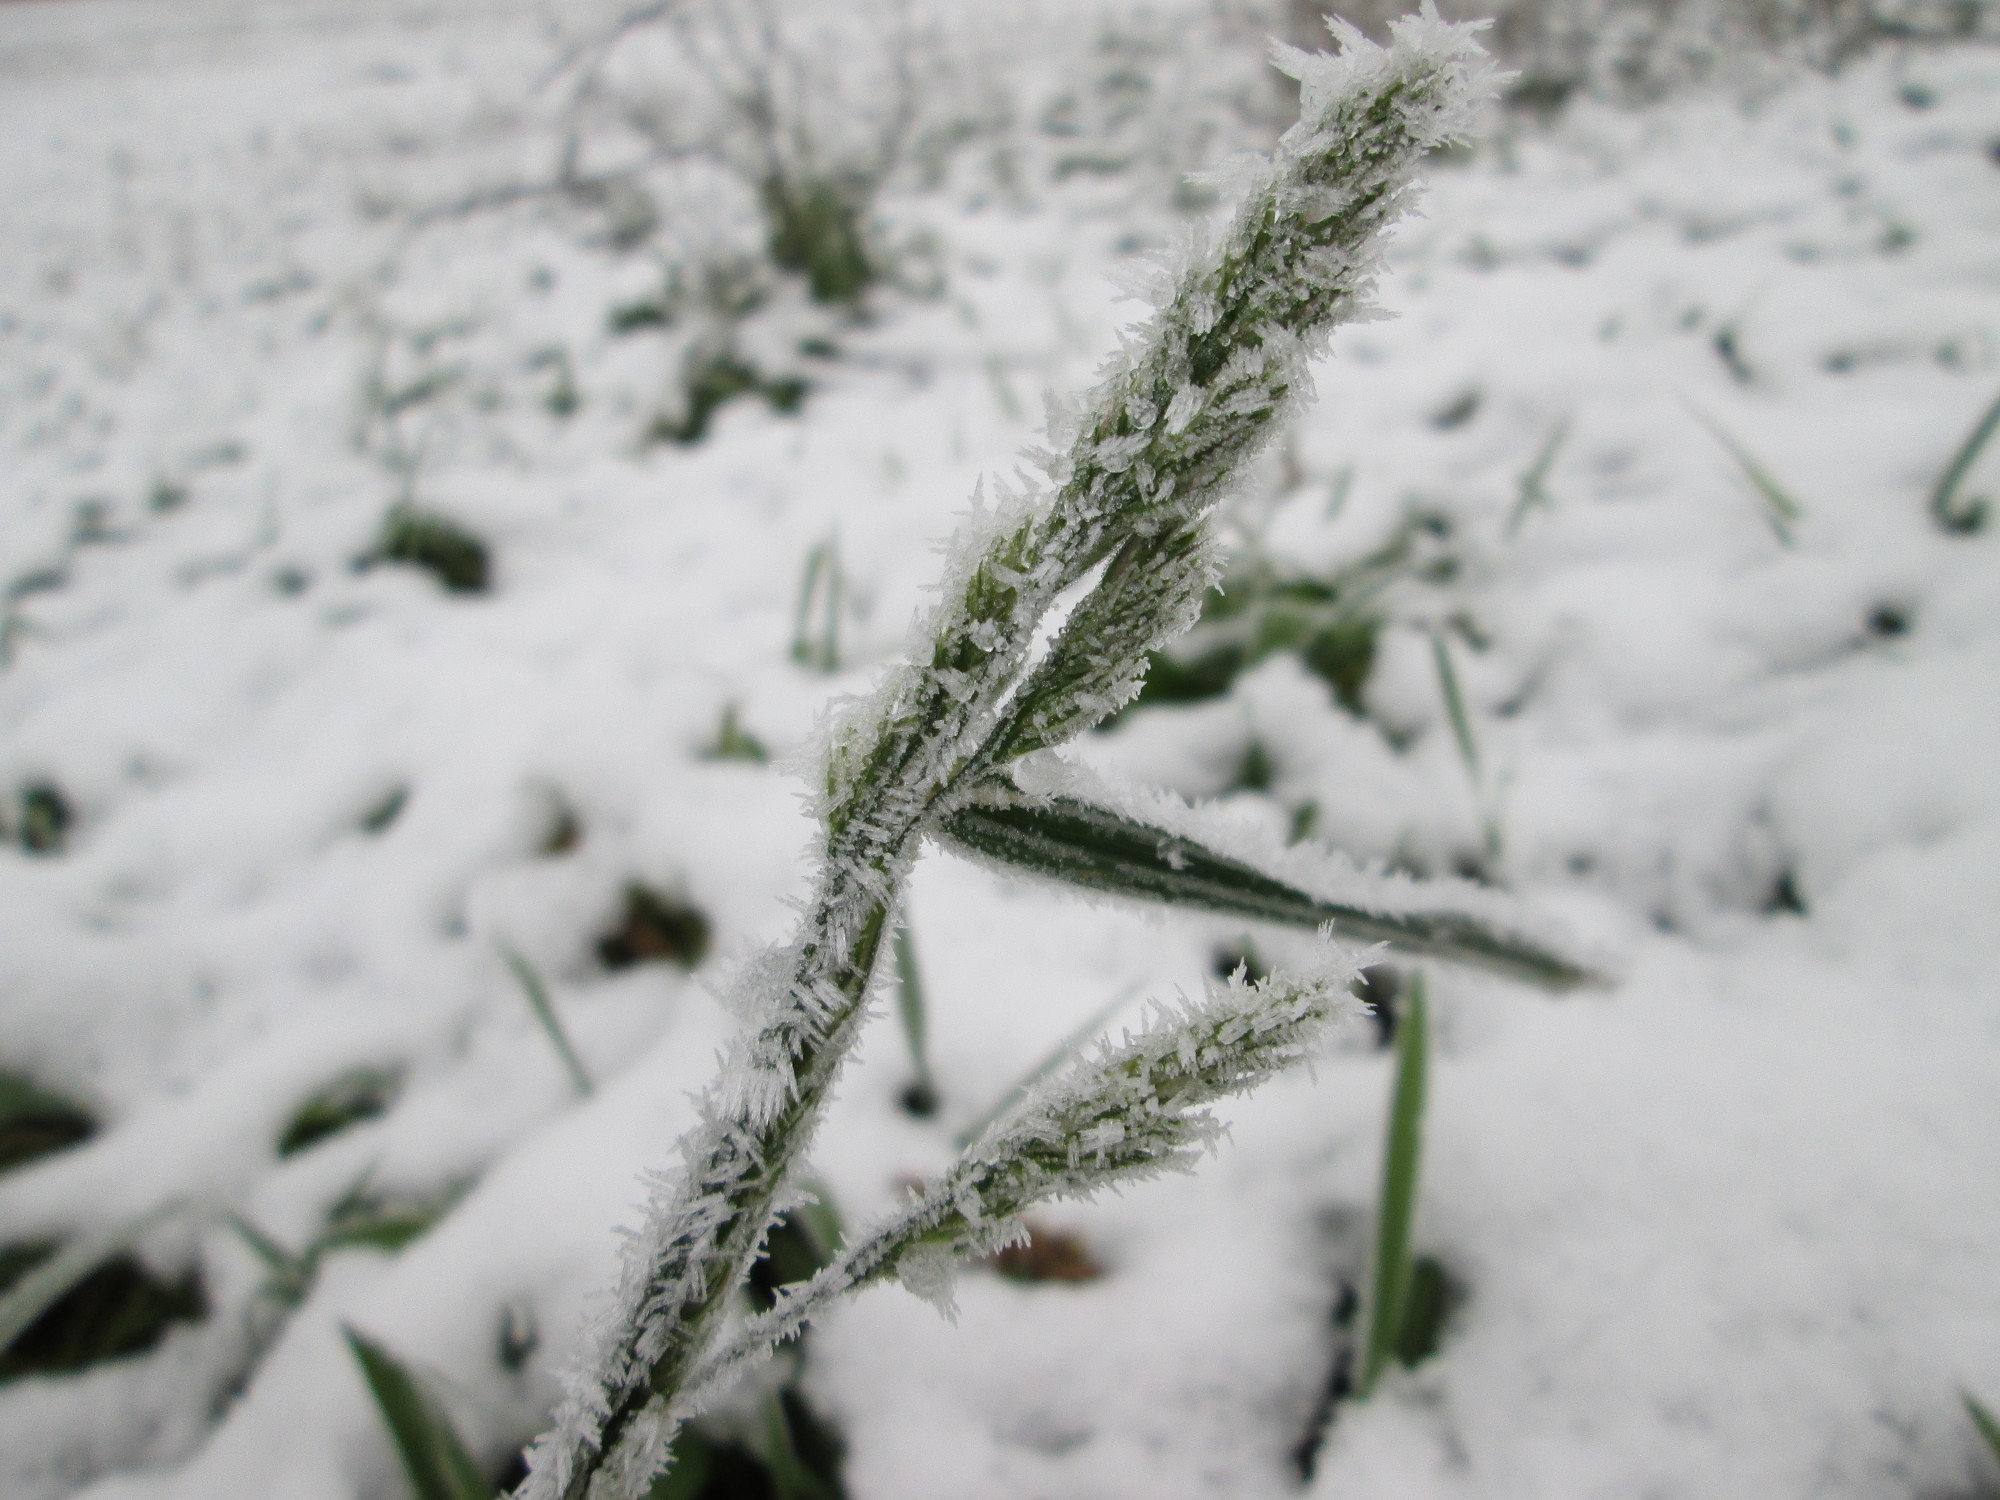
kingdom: Plantae
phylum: Tracheophyta
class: Liliopsida
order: Poales
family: Poaceae
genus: Dactylis
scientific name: Dactylis glomerata
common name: Orchardgrass
